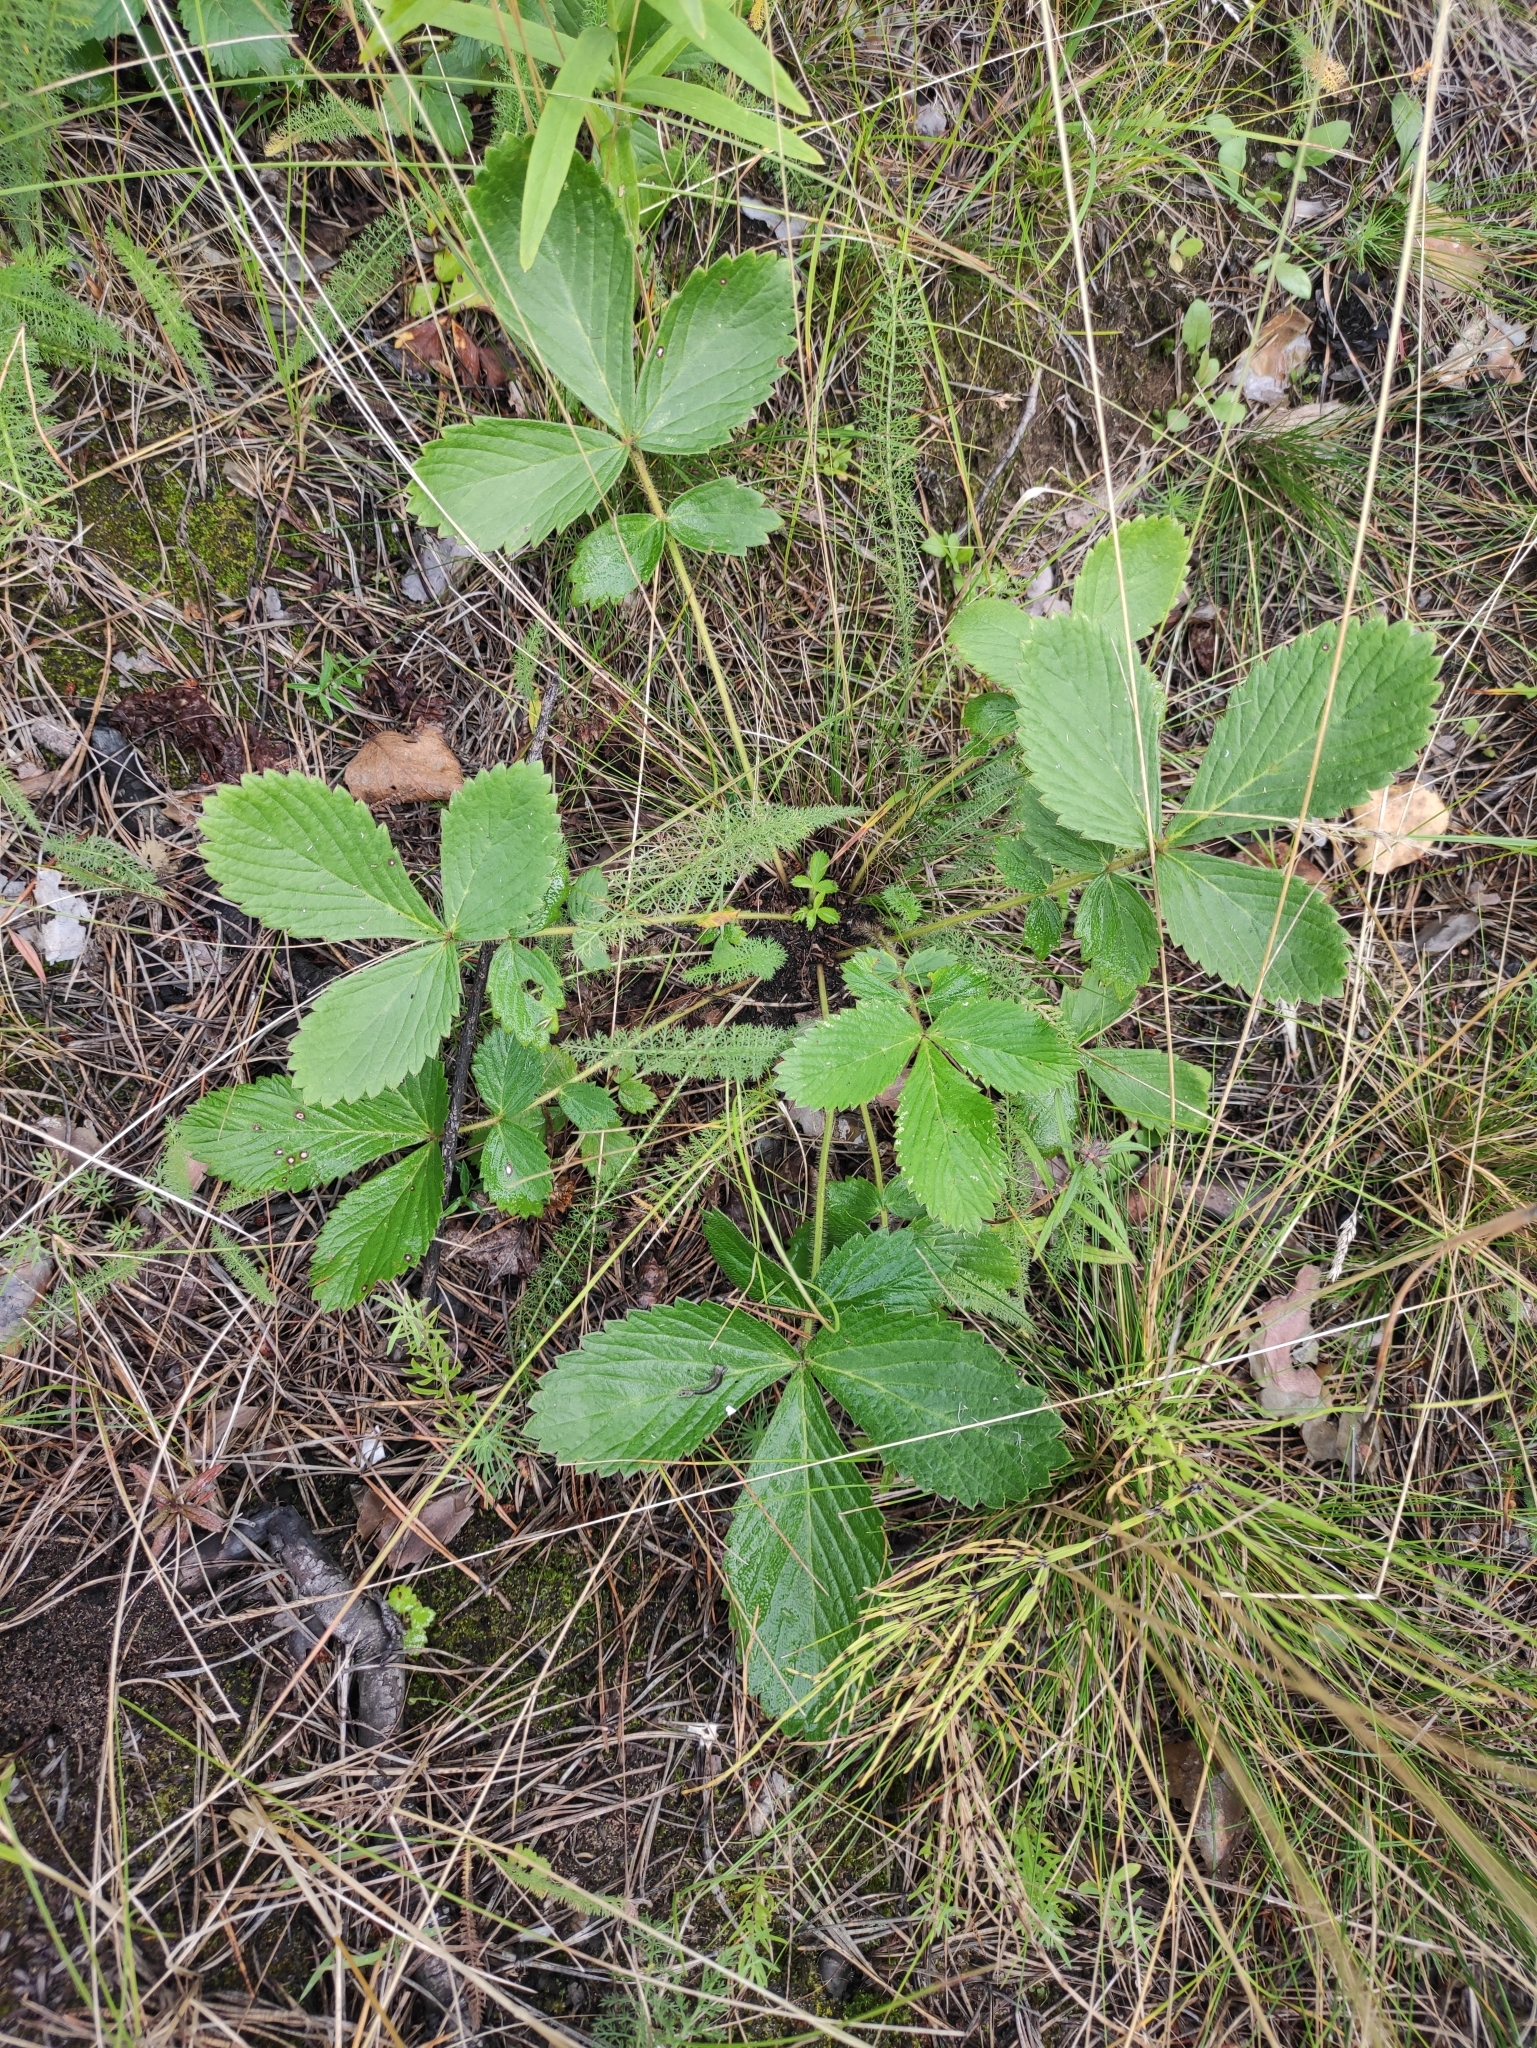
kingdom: Plantae
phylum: Tracheophyta
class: Magnoliopsida
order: Rosales
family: Rosaceae
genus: Potentilla
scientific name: Potentilla fragarioides
